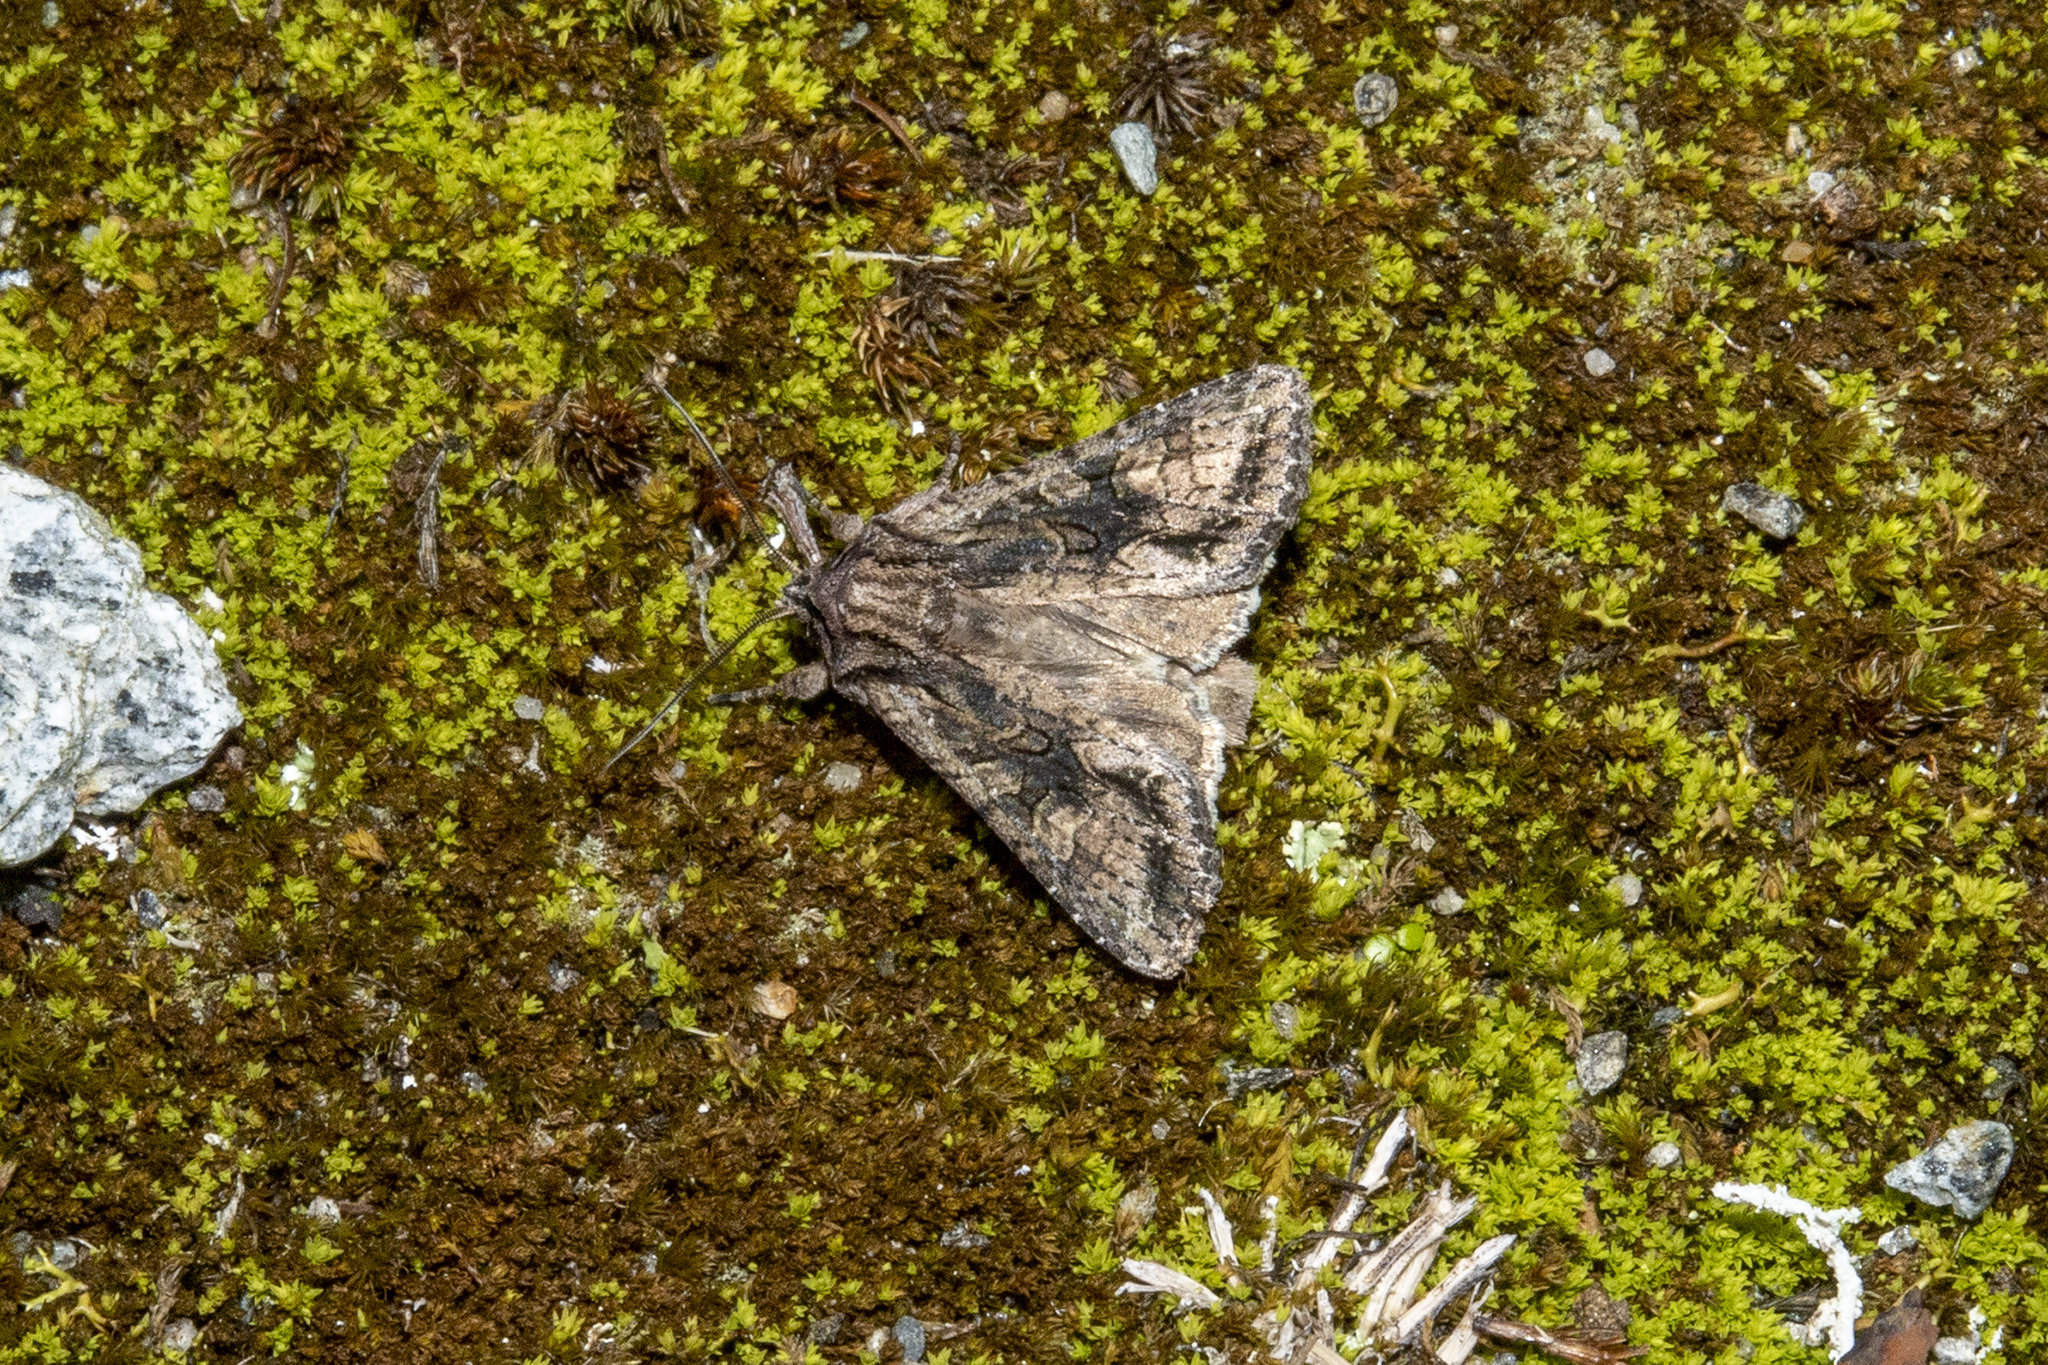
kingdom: Animalia
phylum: Arthropoda
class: Insecta
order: Lepidoptera
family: Noctuidae
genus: Ichneutica
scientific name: Ichneutica mutans
